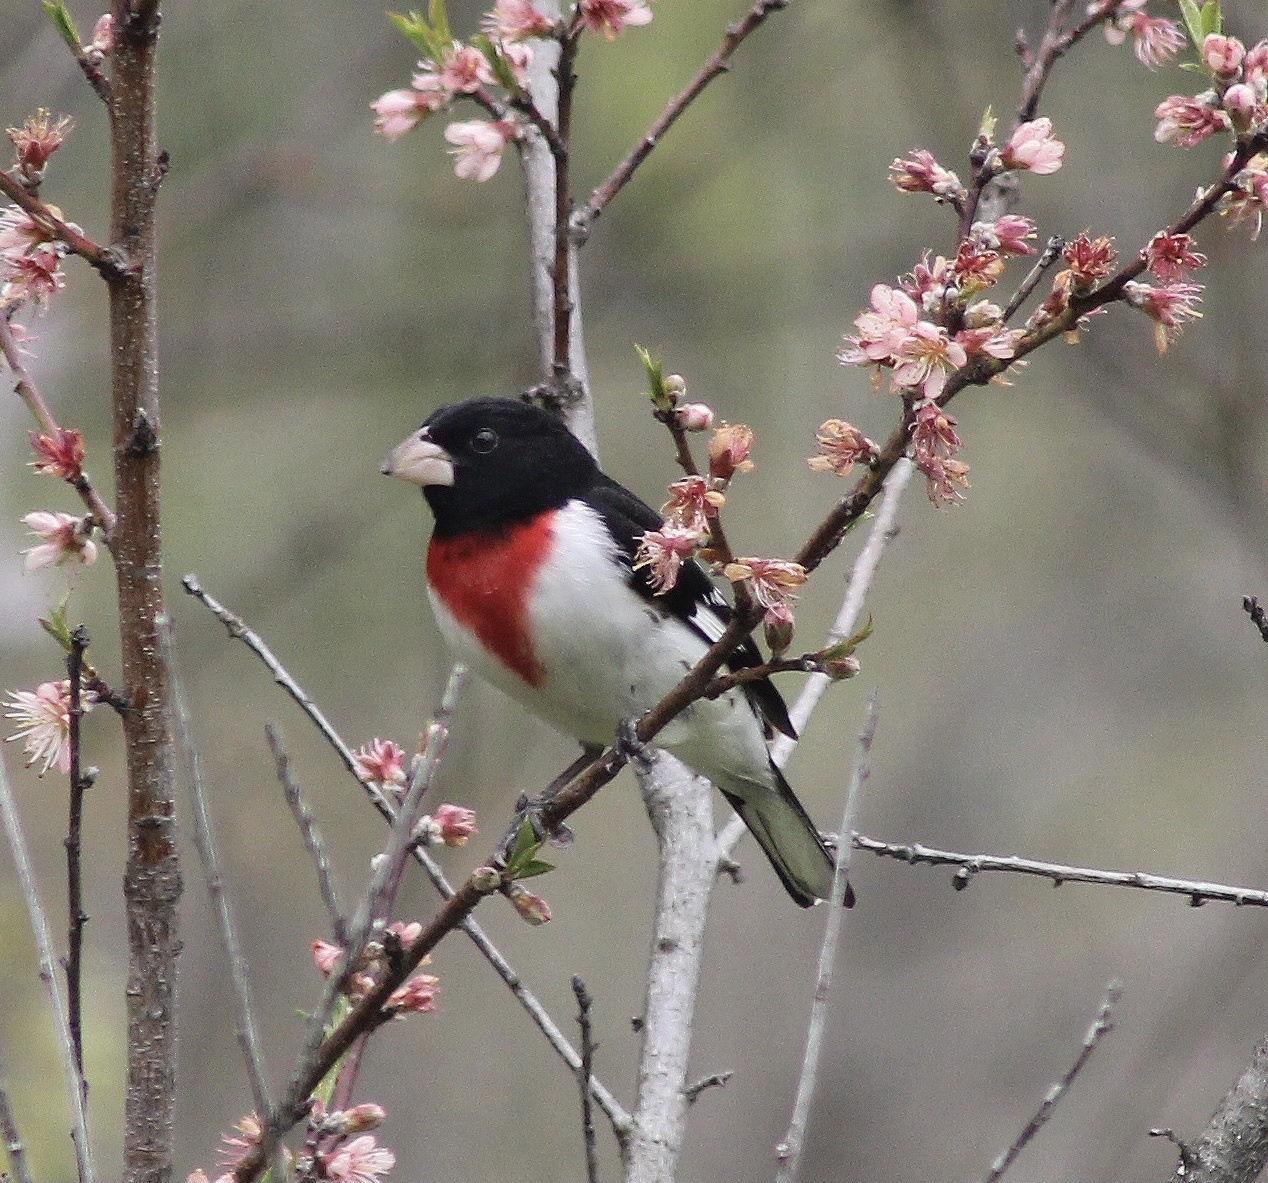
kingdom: Animalia
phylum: Chordata
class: Aves
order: Passeriformes
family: Cardinalidae
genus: Pheucticus
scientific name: Pheucticus ludovicianus
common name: Rose-breasted grosbeak
